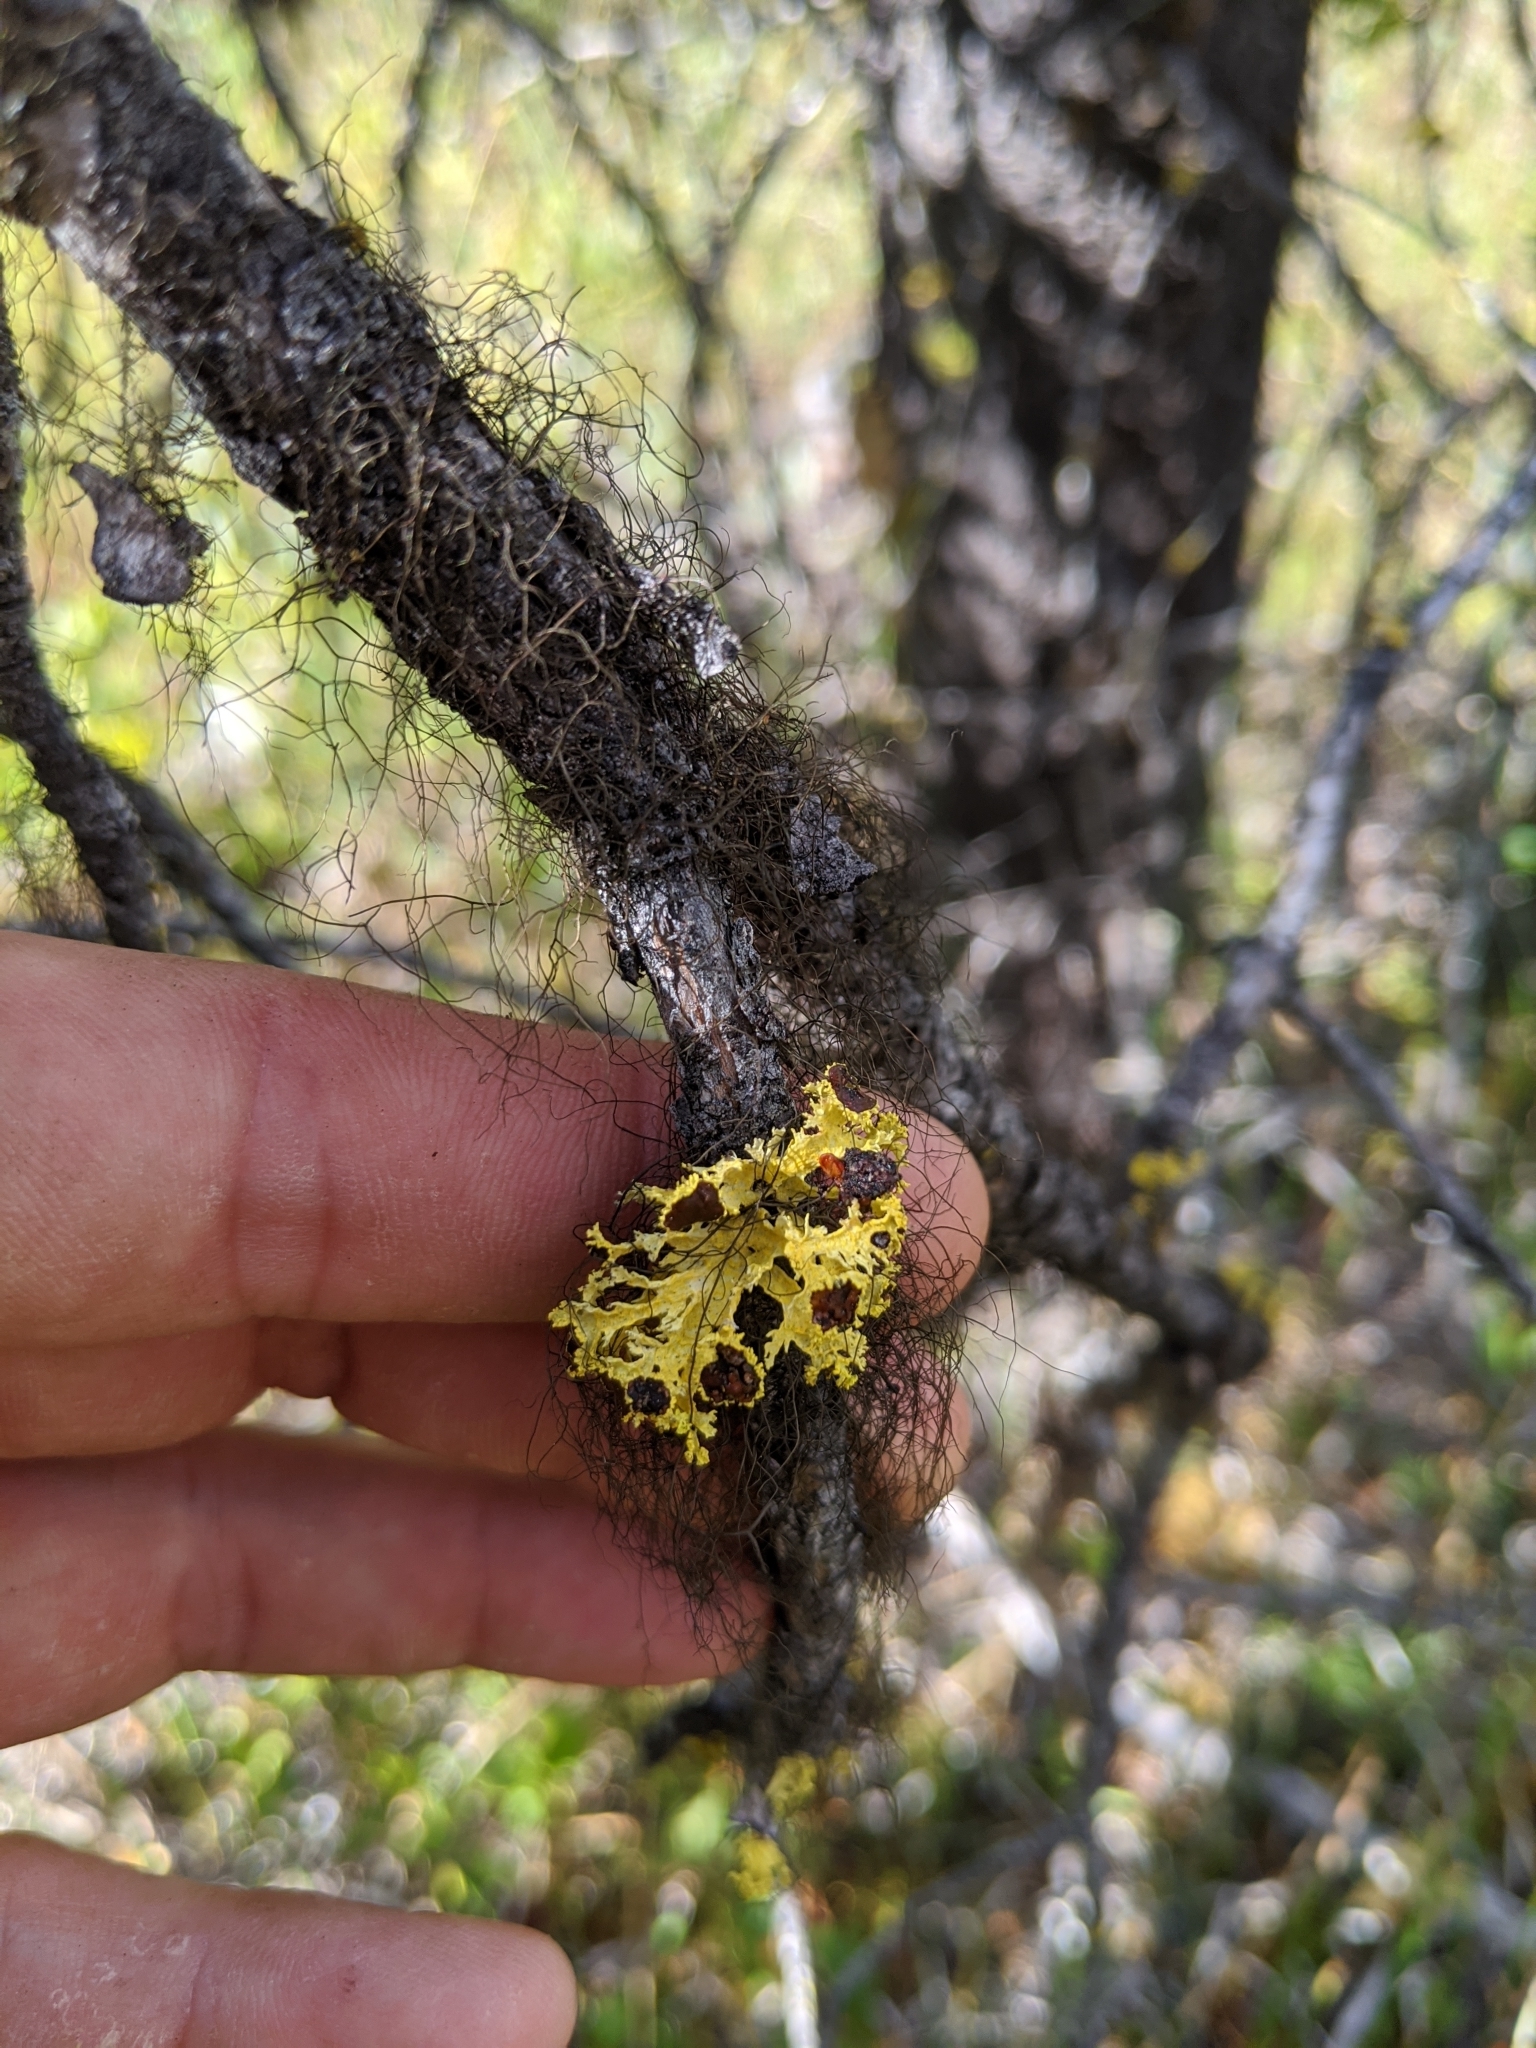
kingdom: Fungi
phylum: Ascomycota
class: Lecanoromycetes
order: Lecanorales
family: Parmeliaceae
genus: Vulpicida
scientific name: Vulpicida canadensis
